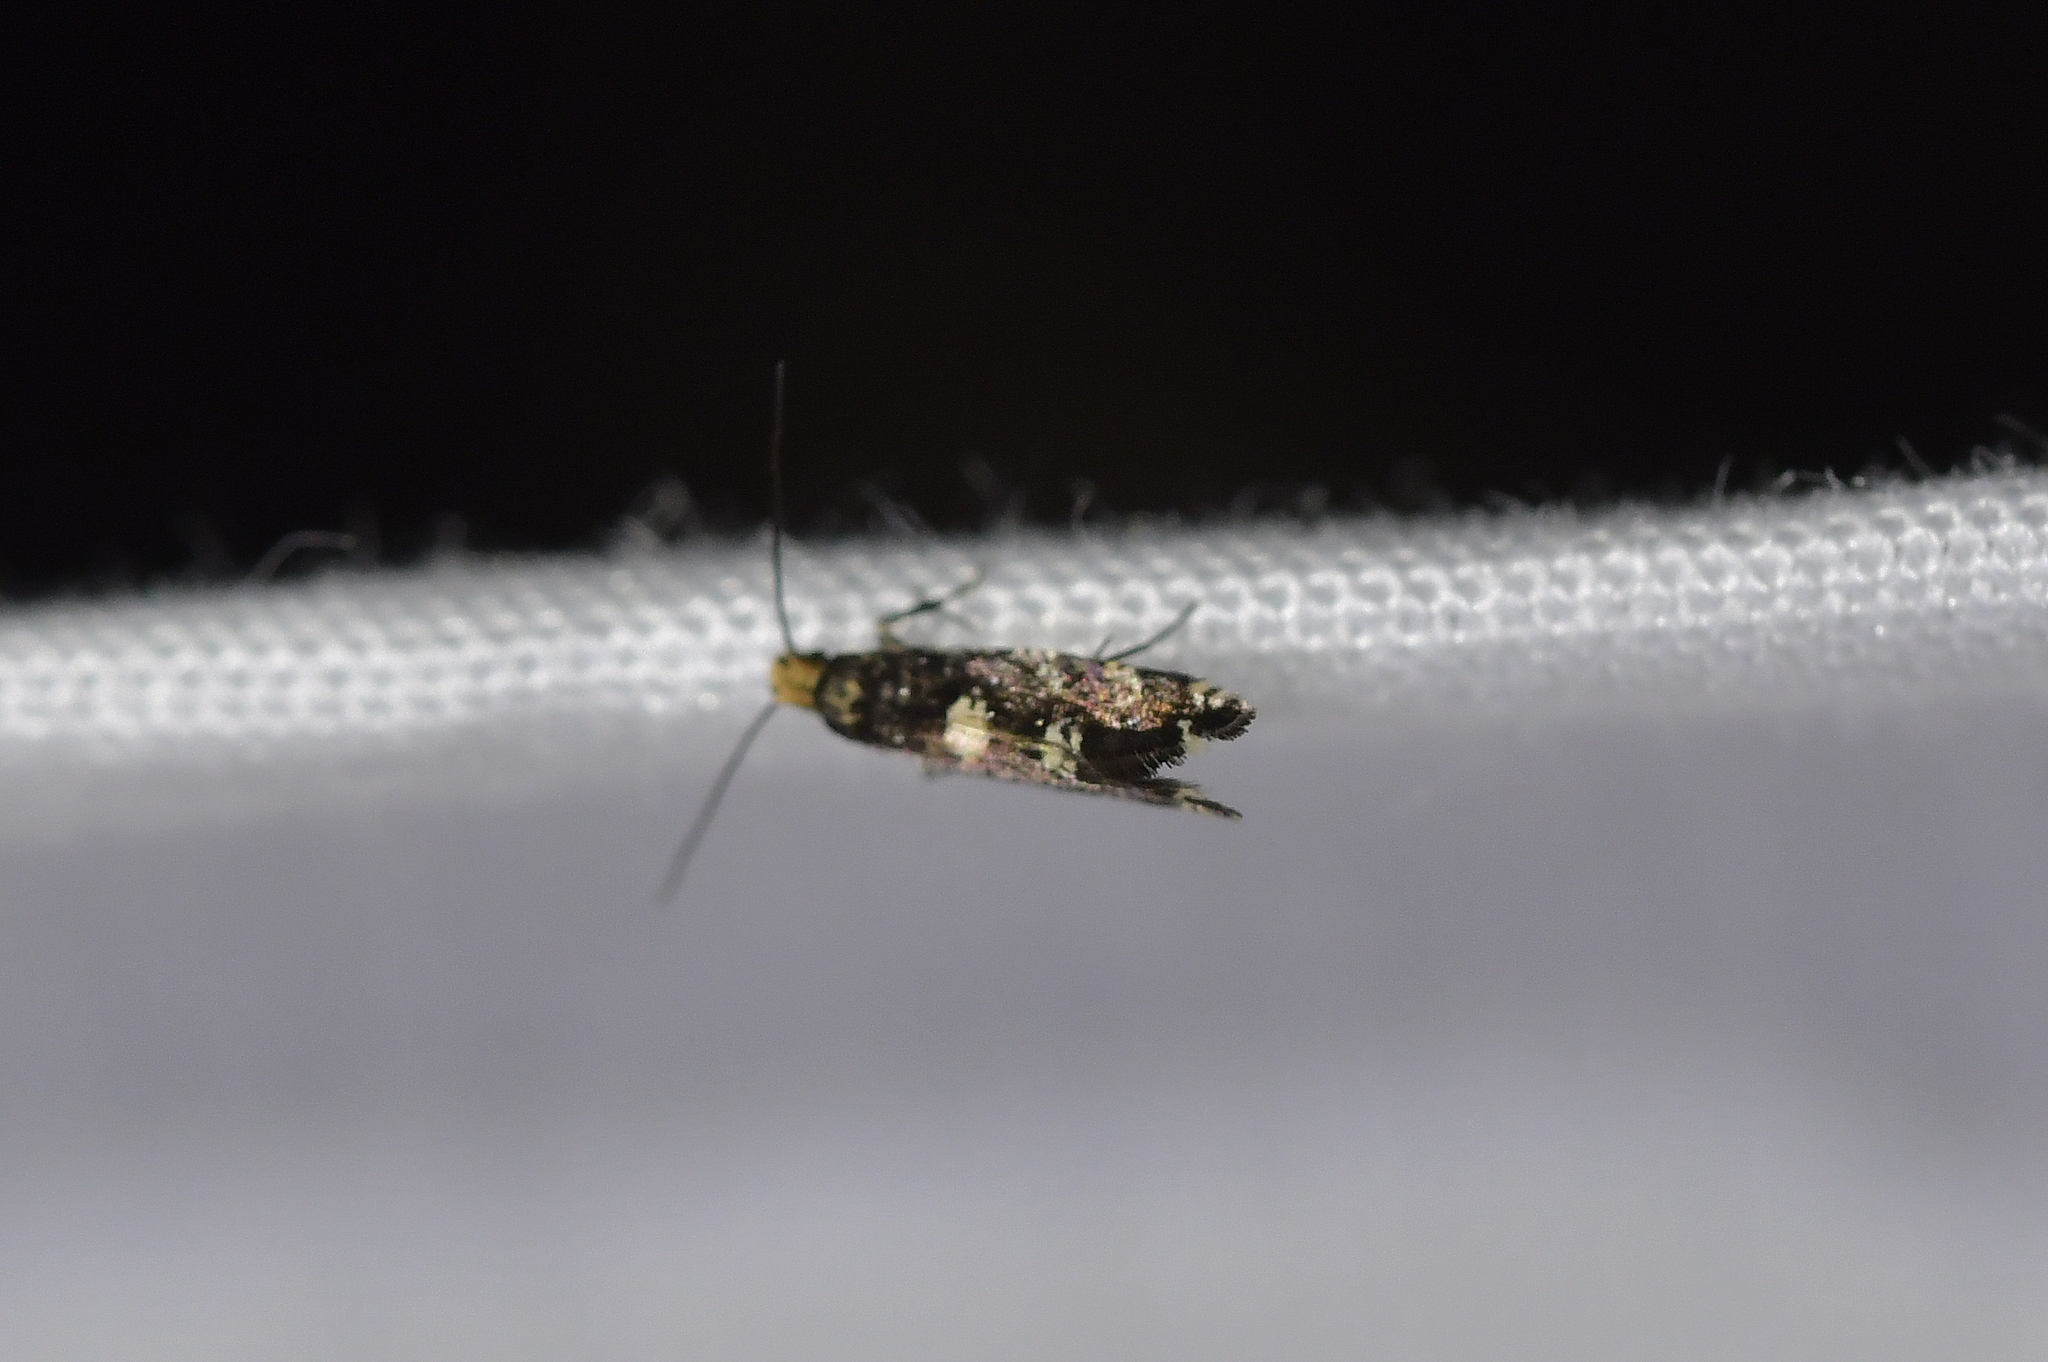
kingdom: Animalia
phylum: Arthropoda
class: Insecta
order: Lepidoptera
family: Tineidae
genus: Tinea
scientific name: Tinea argodelta
